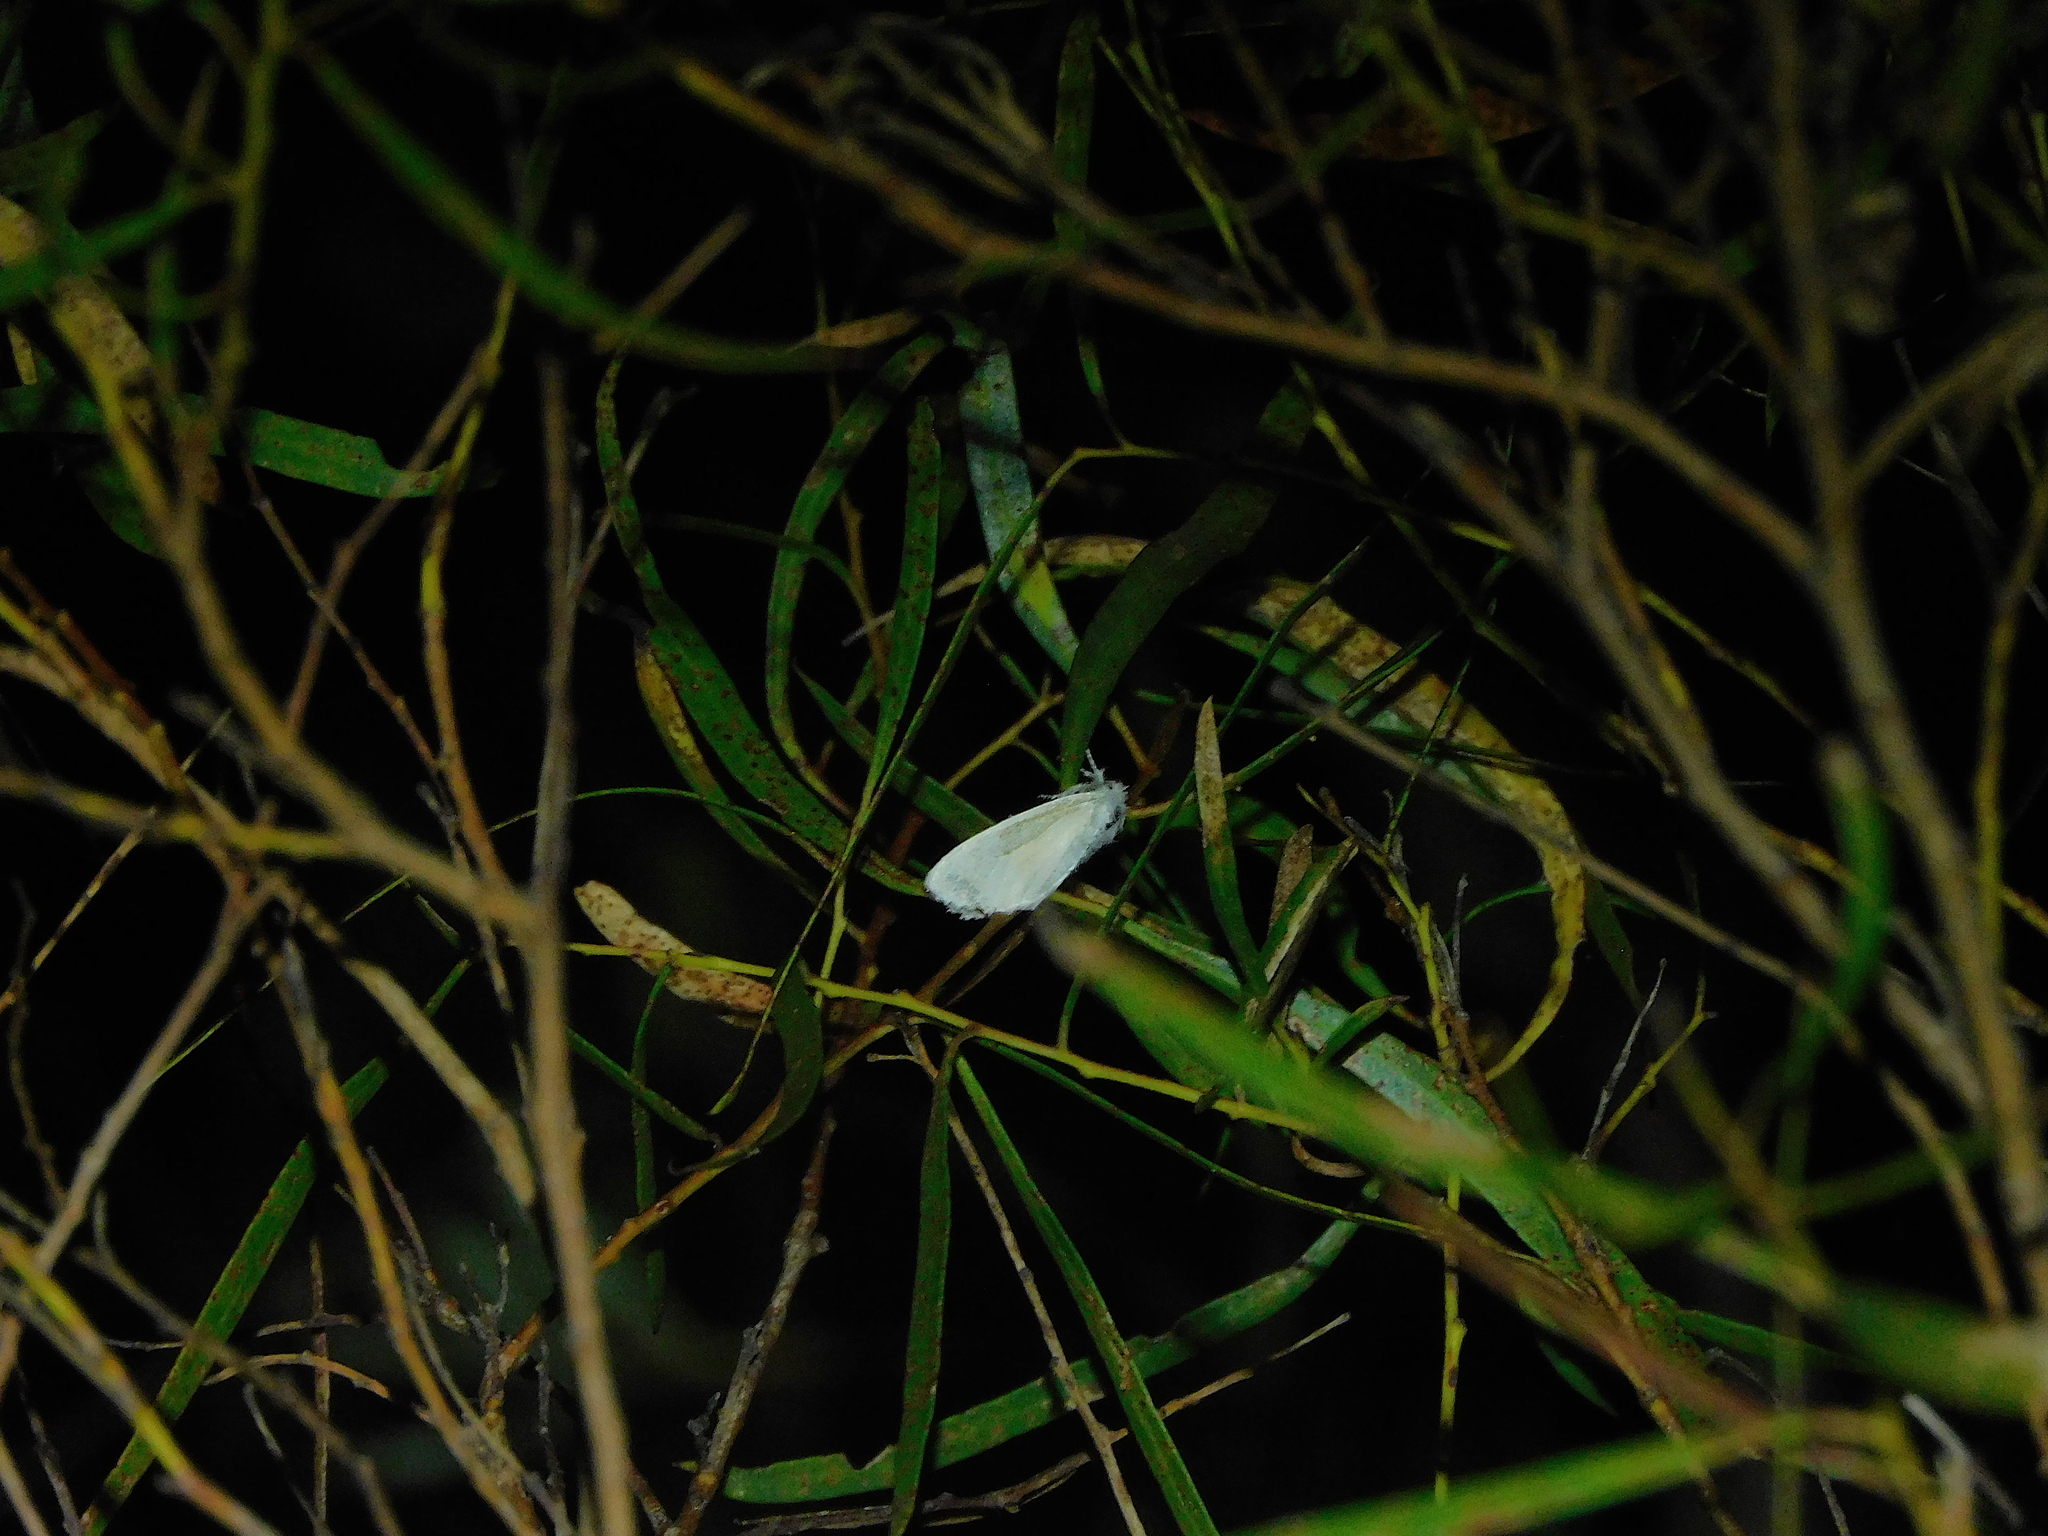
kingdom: Animalia
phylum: Arthropoda
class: Insecta
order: Lepidoptera
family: Erebidae
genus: Acyphas
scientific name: Acyphas semiochrea
